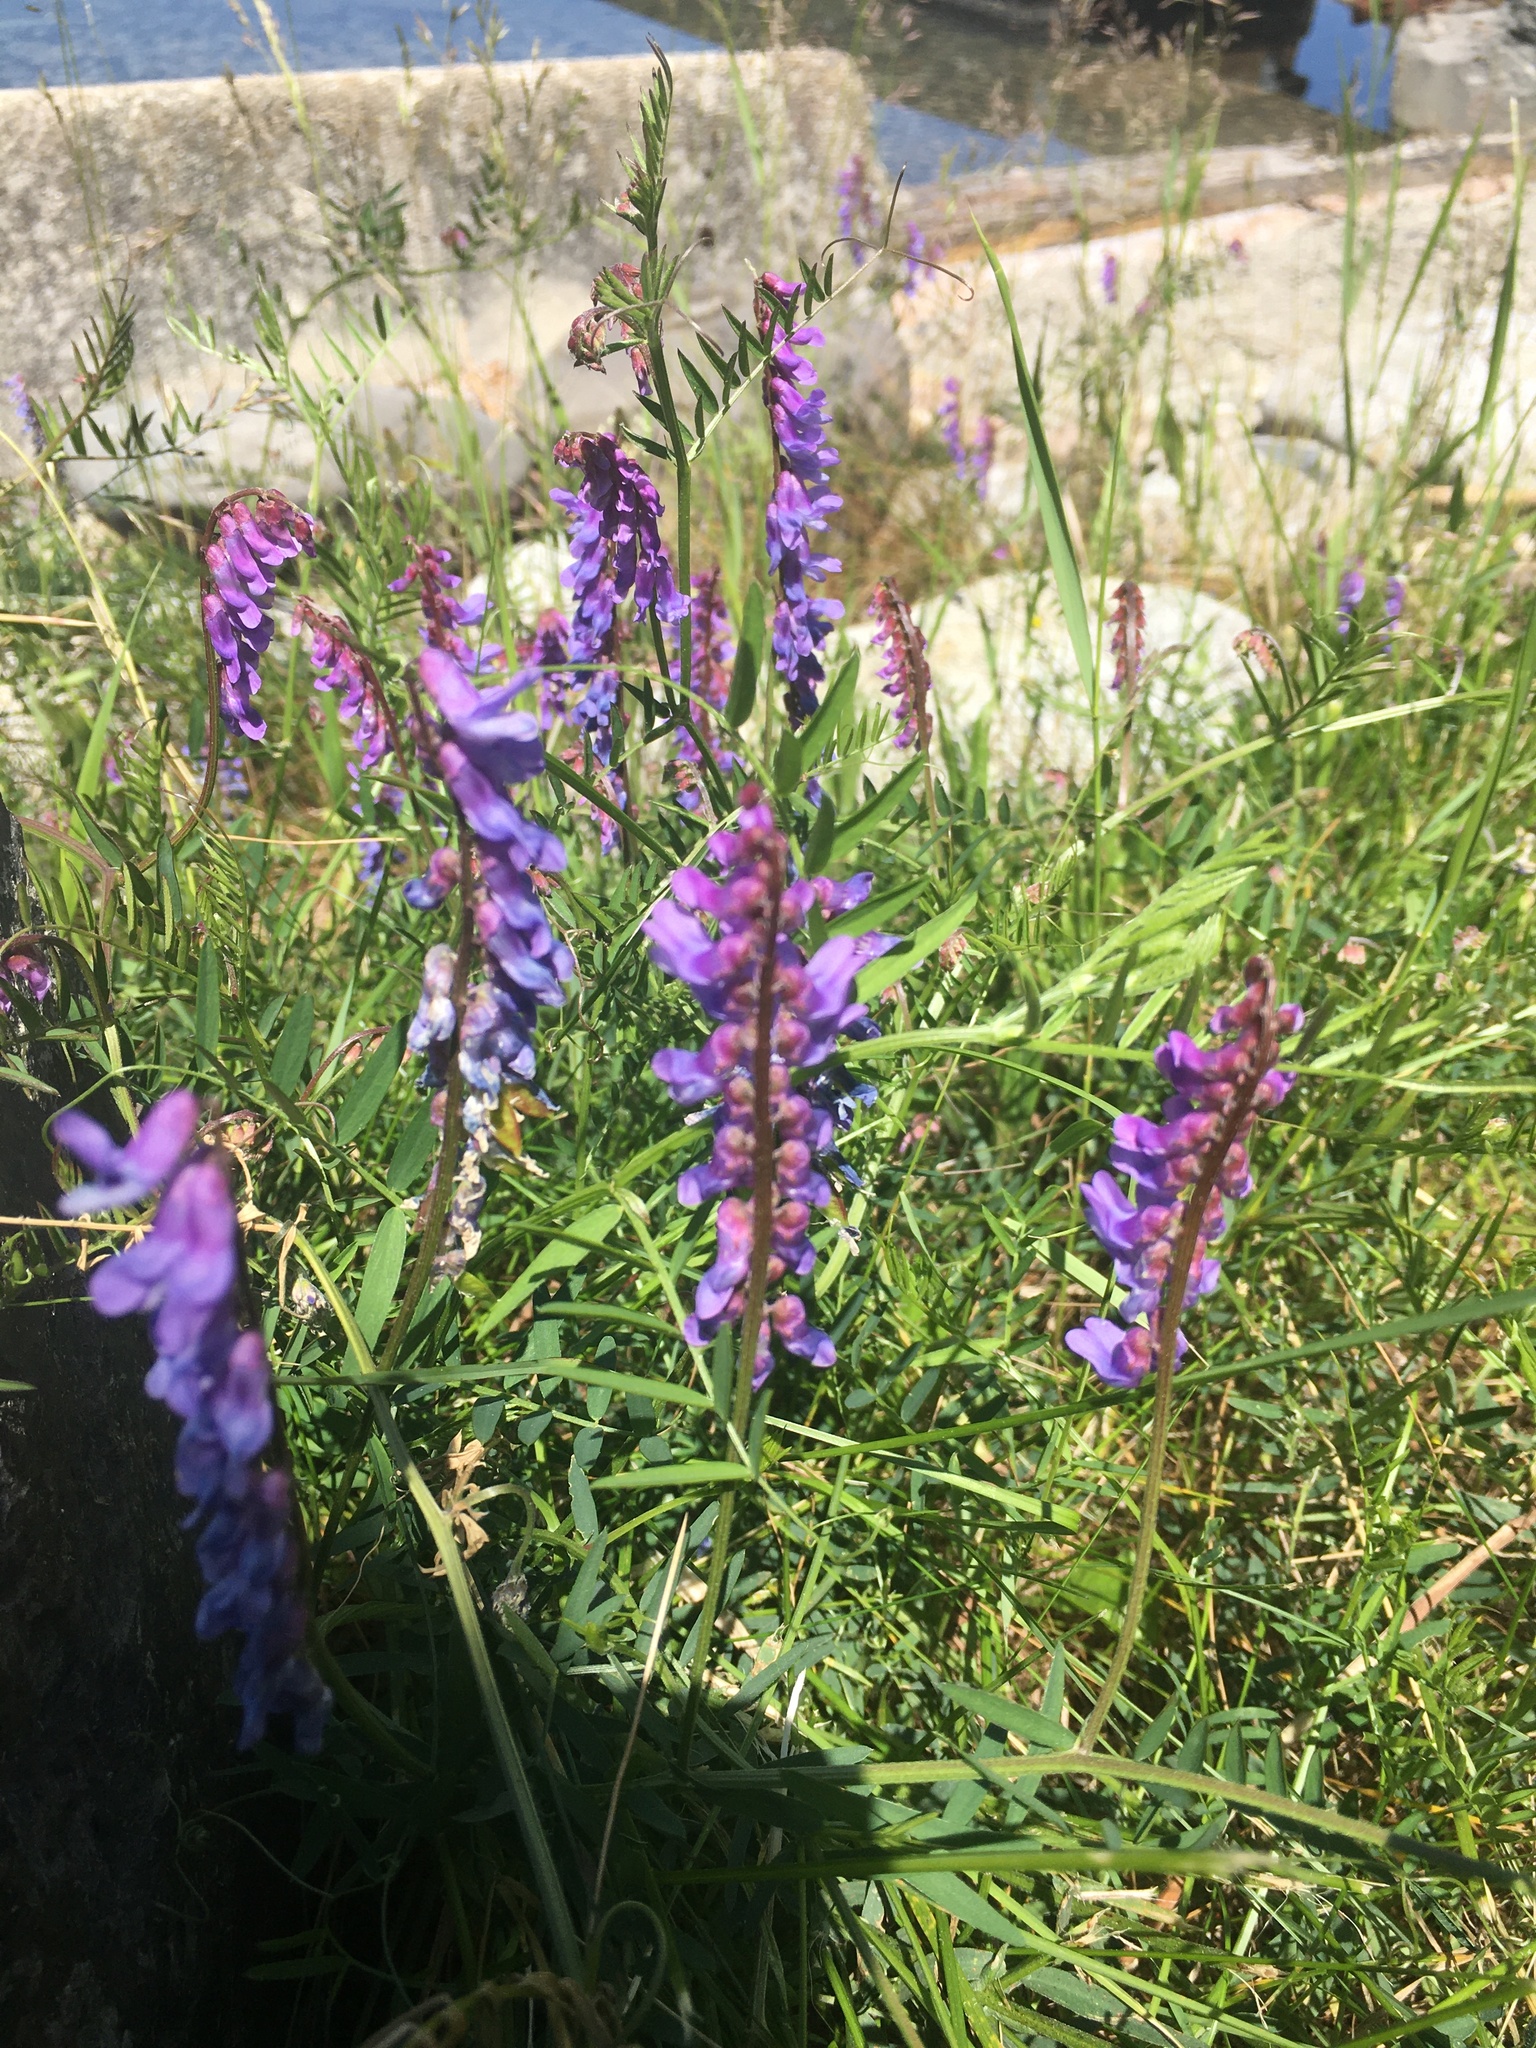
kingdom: Plantae
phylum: Tracheophyta
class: Magnoliopsida
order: Fabales
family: Fabaceae
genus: Vicia
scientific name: Vicia cracca
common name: Bird vetch
